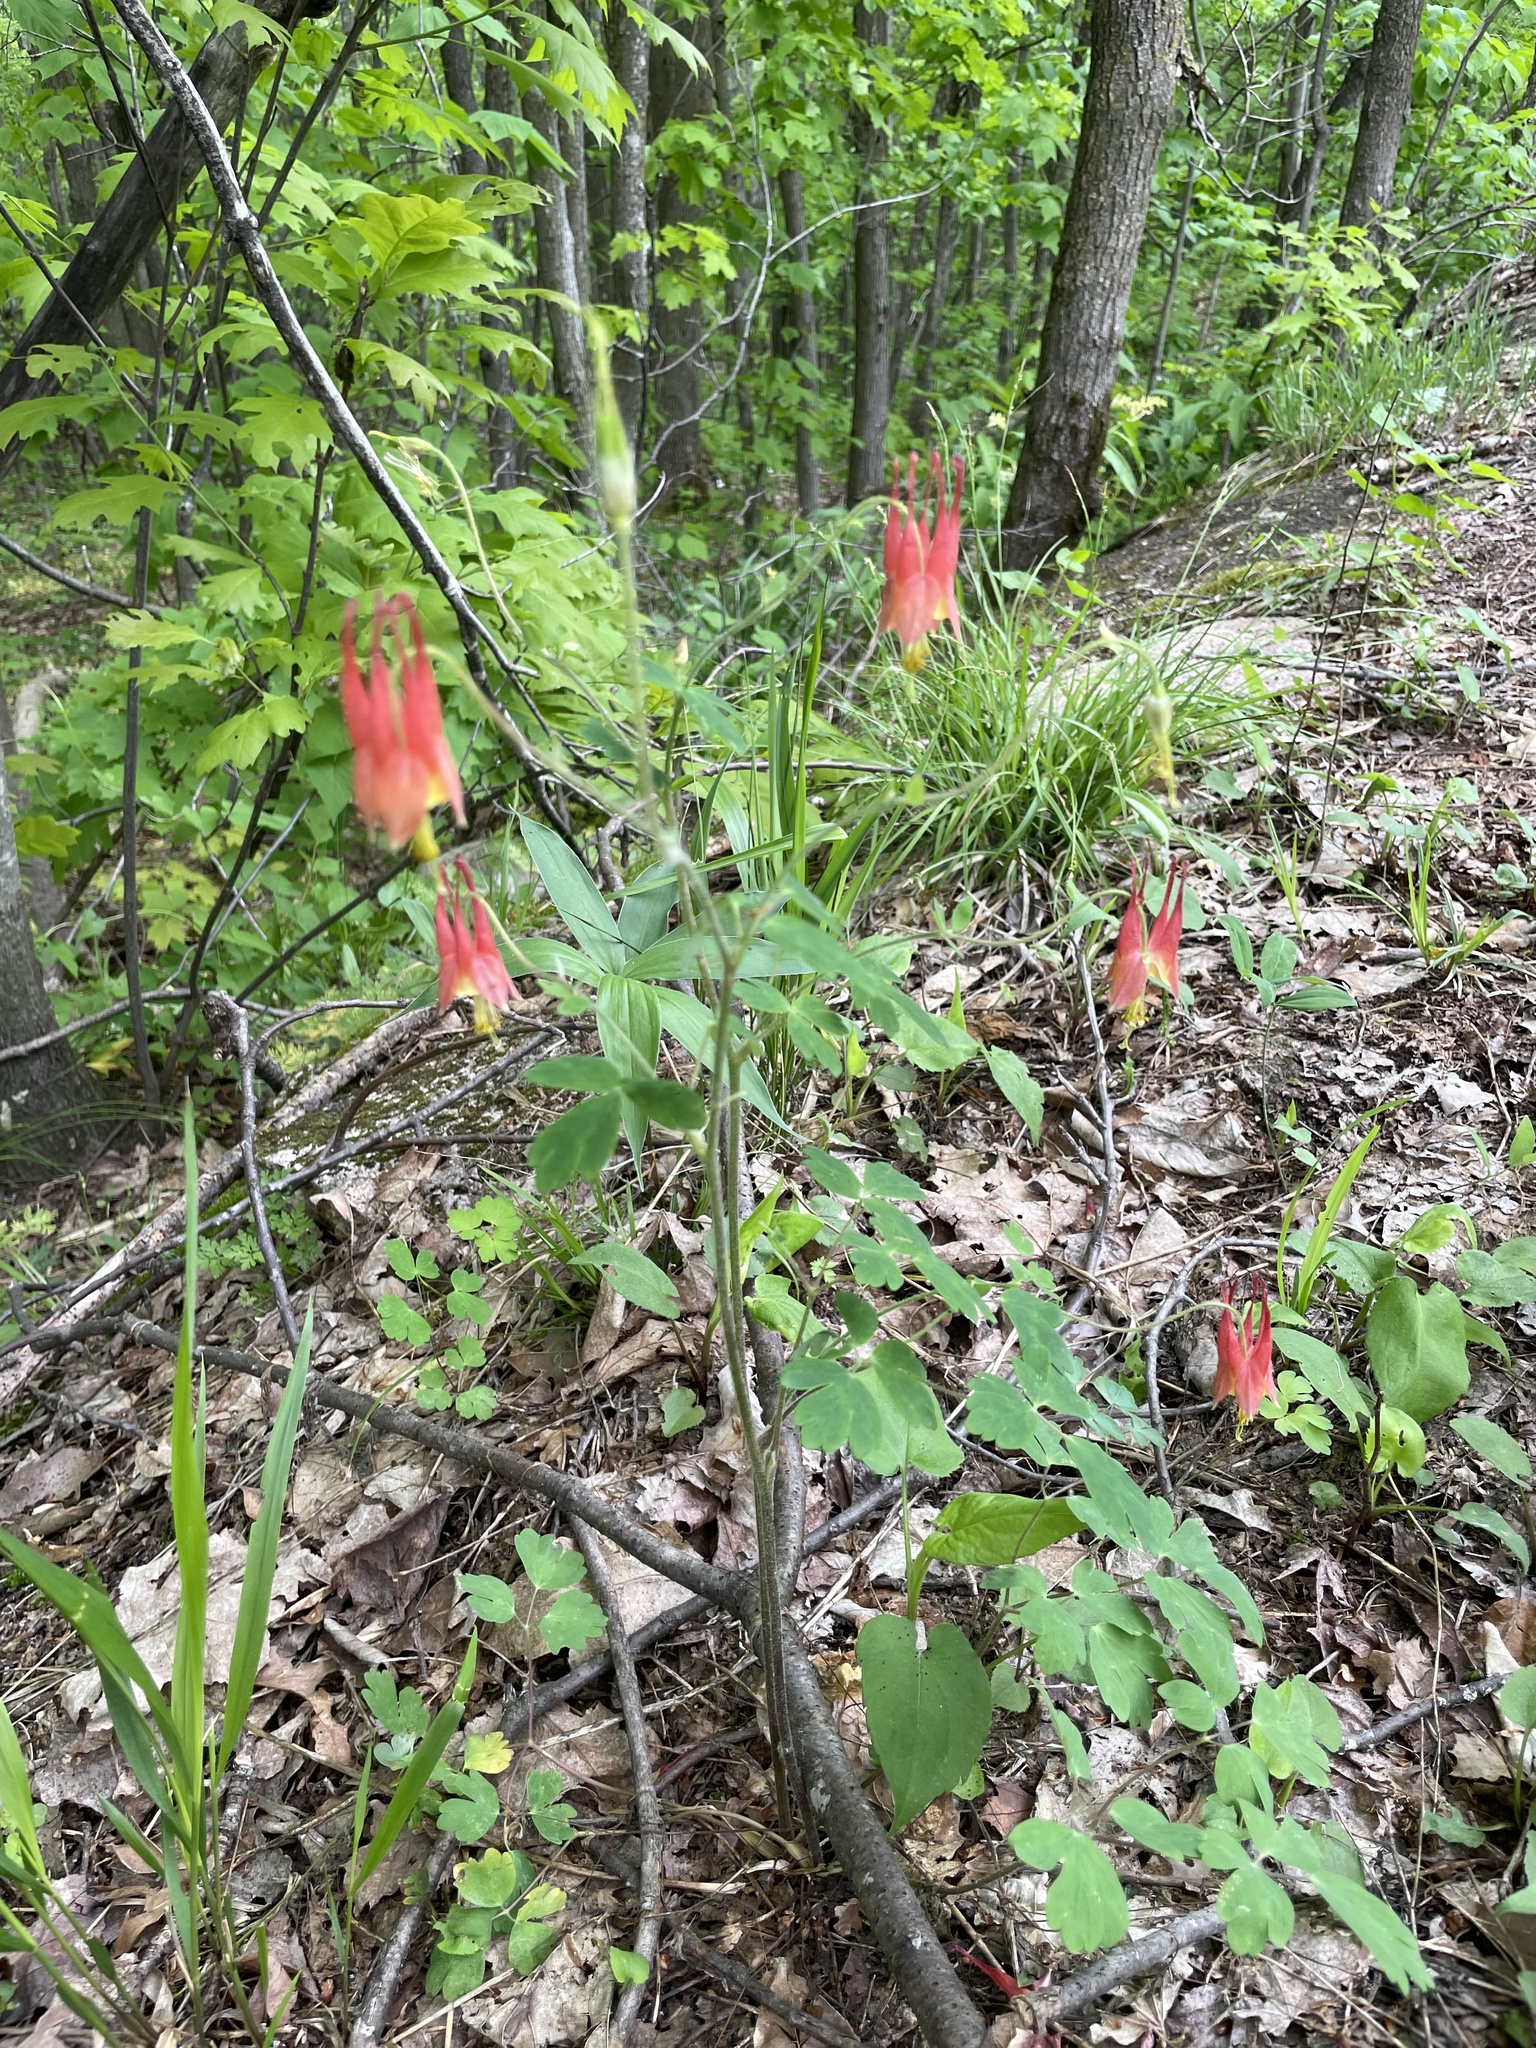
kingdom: Plantae
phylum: Tracheophyta
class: Magnoliopsida
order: Ranunculales
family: Ranunculaceae
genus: Aquilegia
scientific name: Aquilegia canadensis
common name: American columbine
